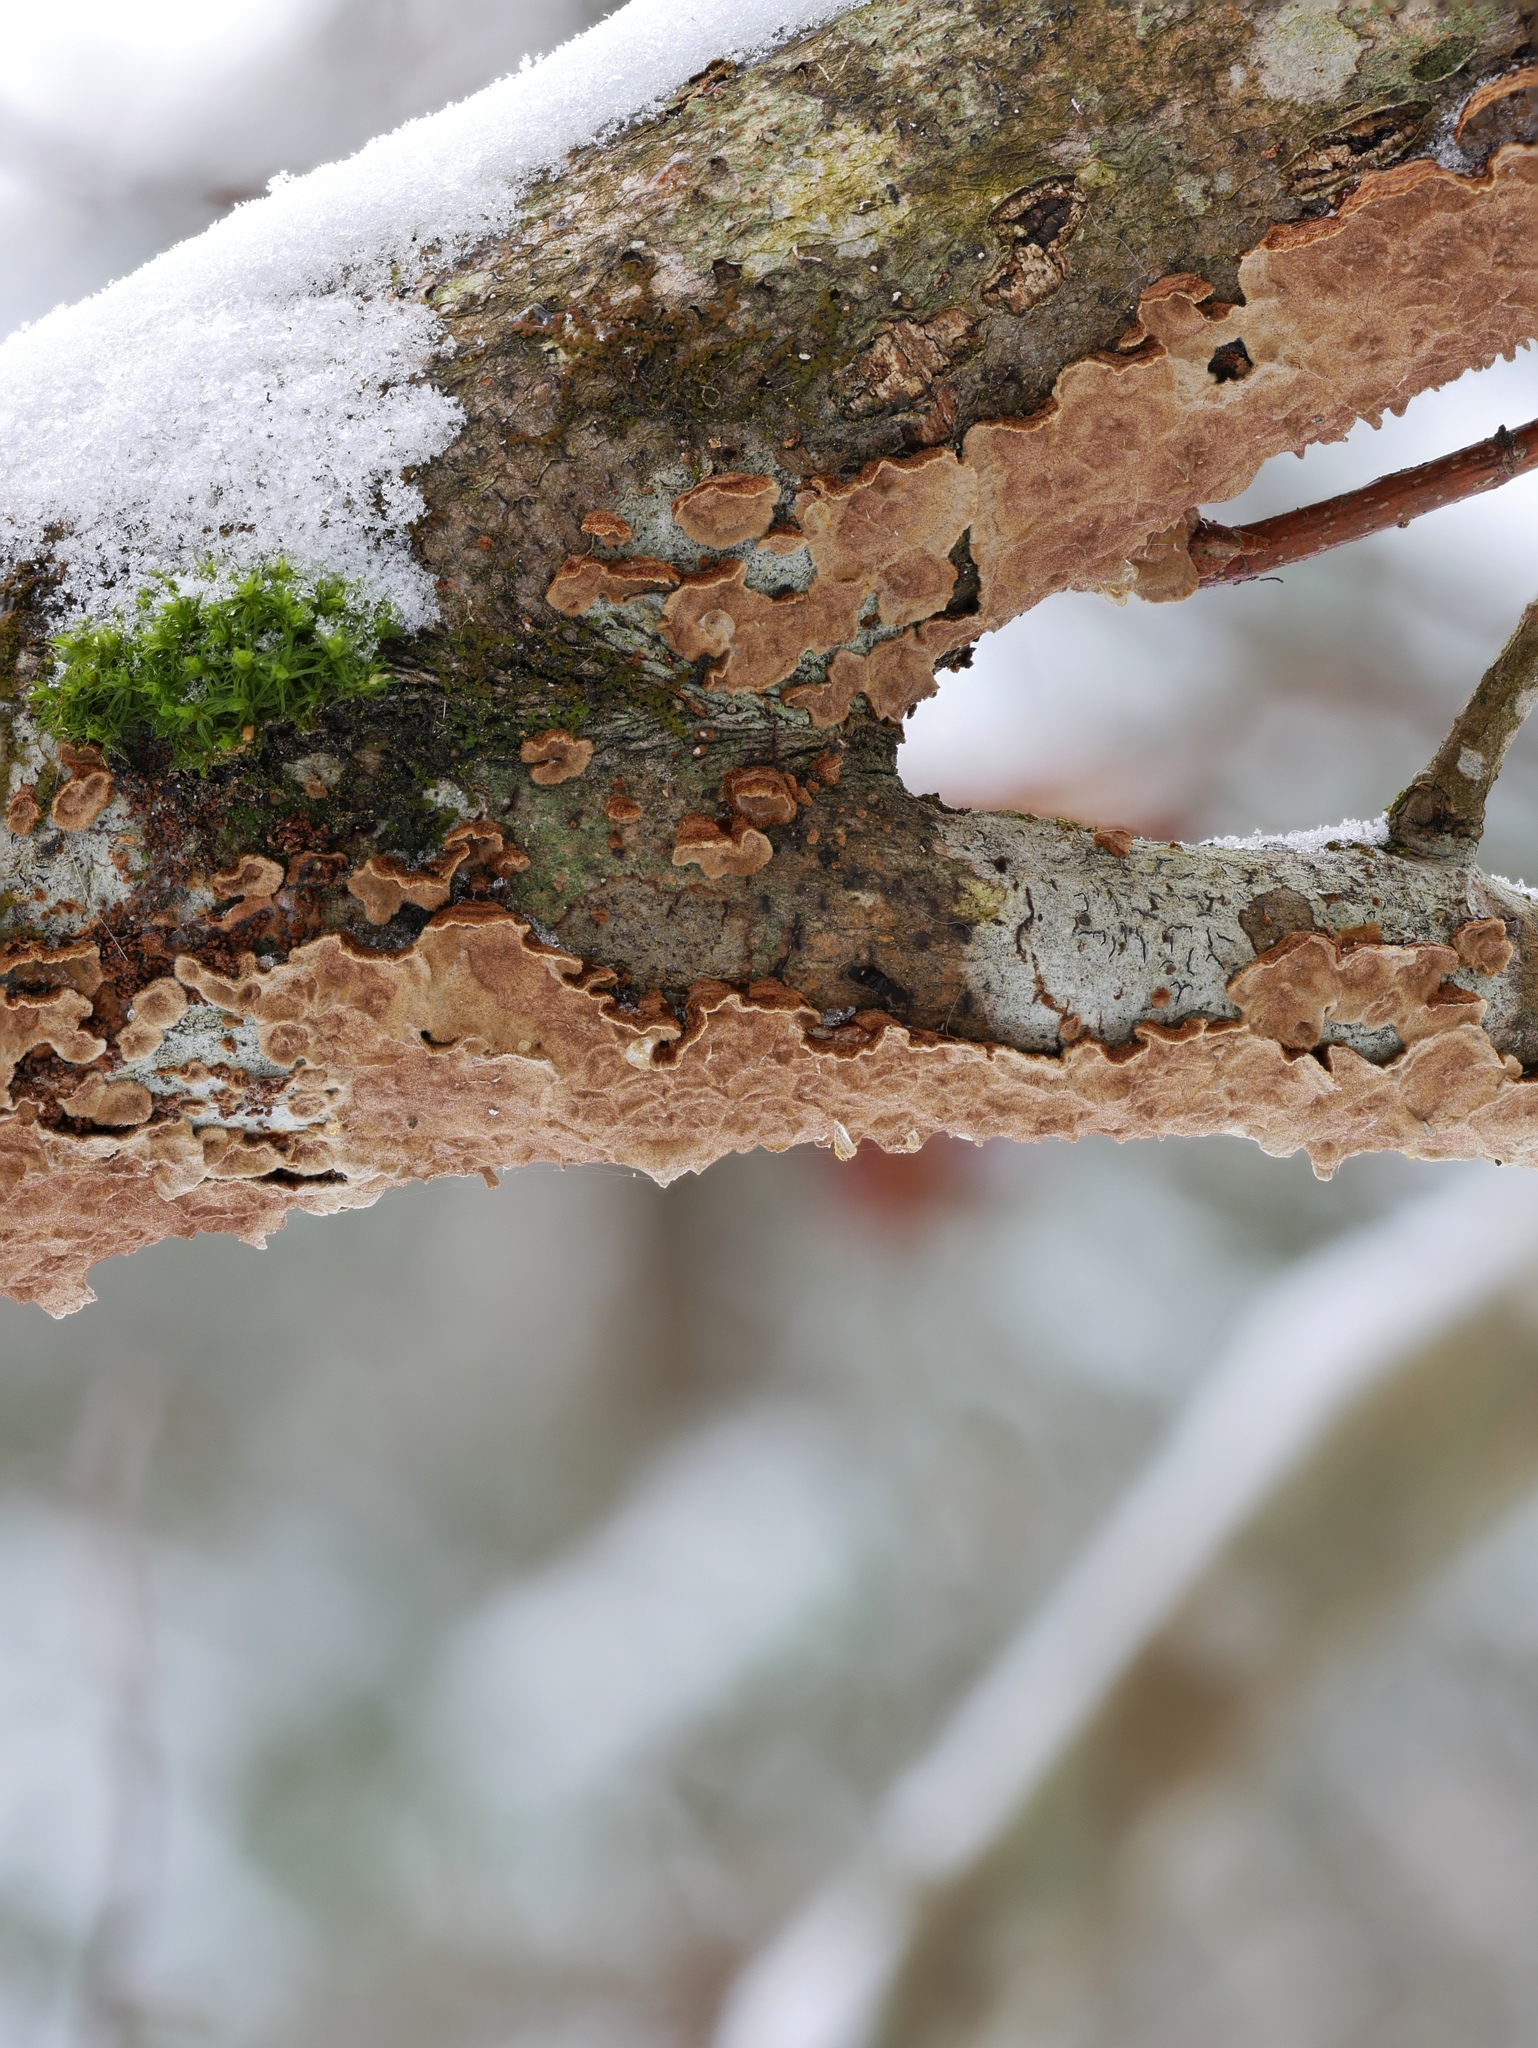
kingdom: Fungi
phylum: Basidiomycota
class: Agaricomycetes
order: Hymenochaetales
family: Hymenochaetaceae
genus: Hydnoporia
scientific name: Hydnoporia tabacina
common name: Willow glue
